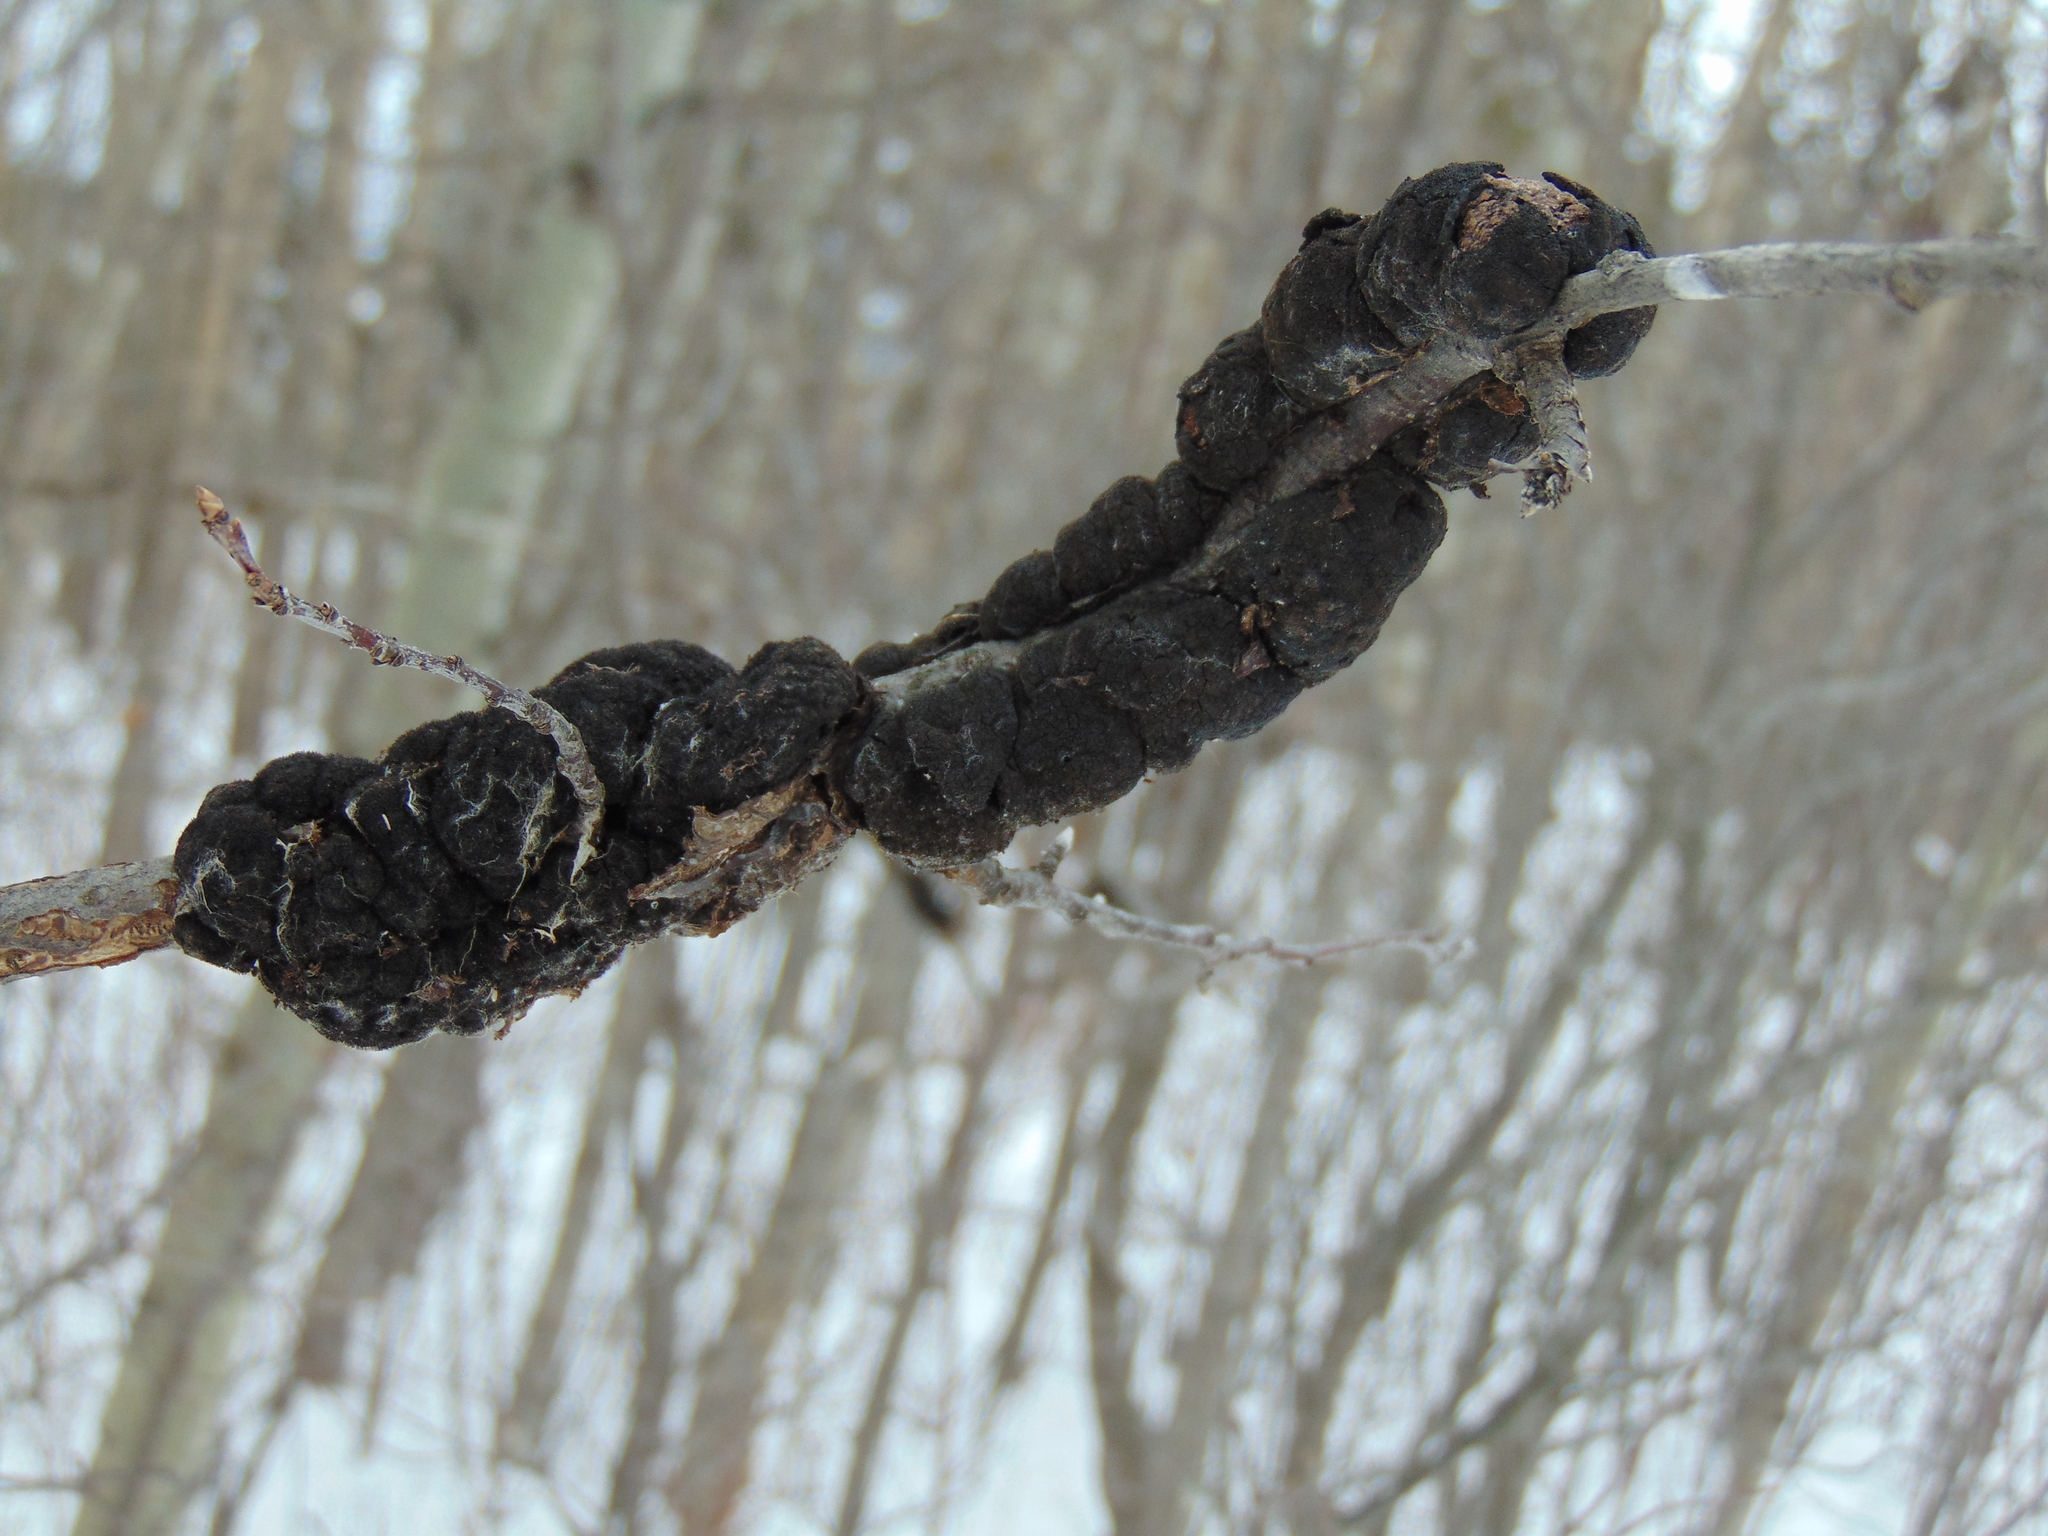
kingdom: Fungi
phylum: Ascomycota
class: Dothideomycetes
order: Venturiales
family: Venturiaceae
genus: Apiosporina
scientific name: Apiosporina morbosa
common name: Black knot
